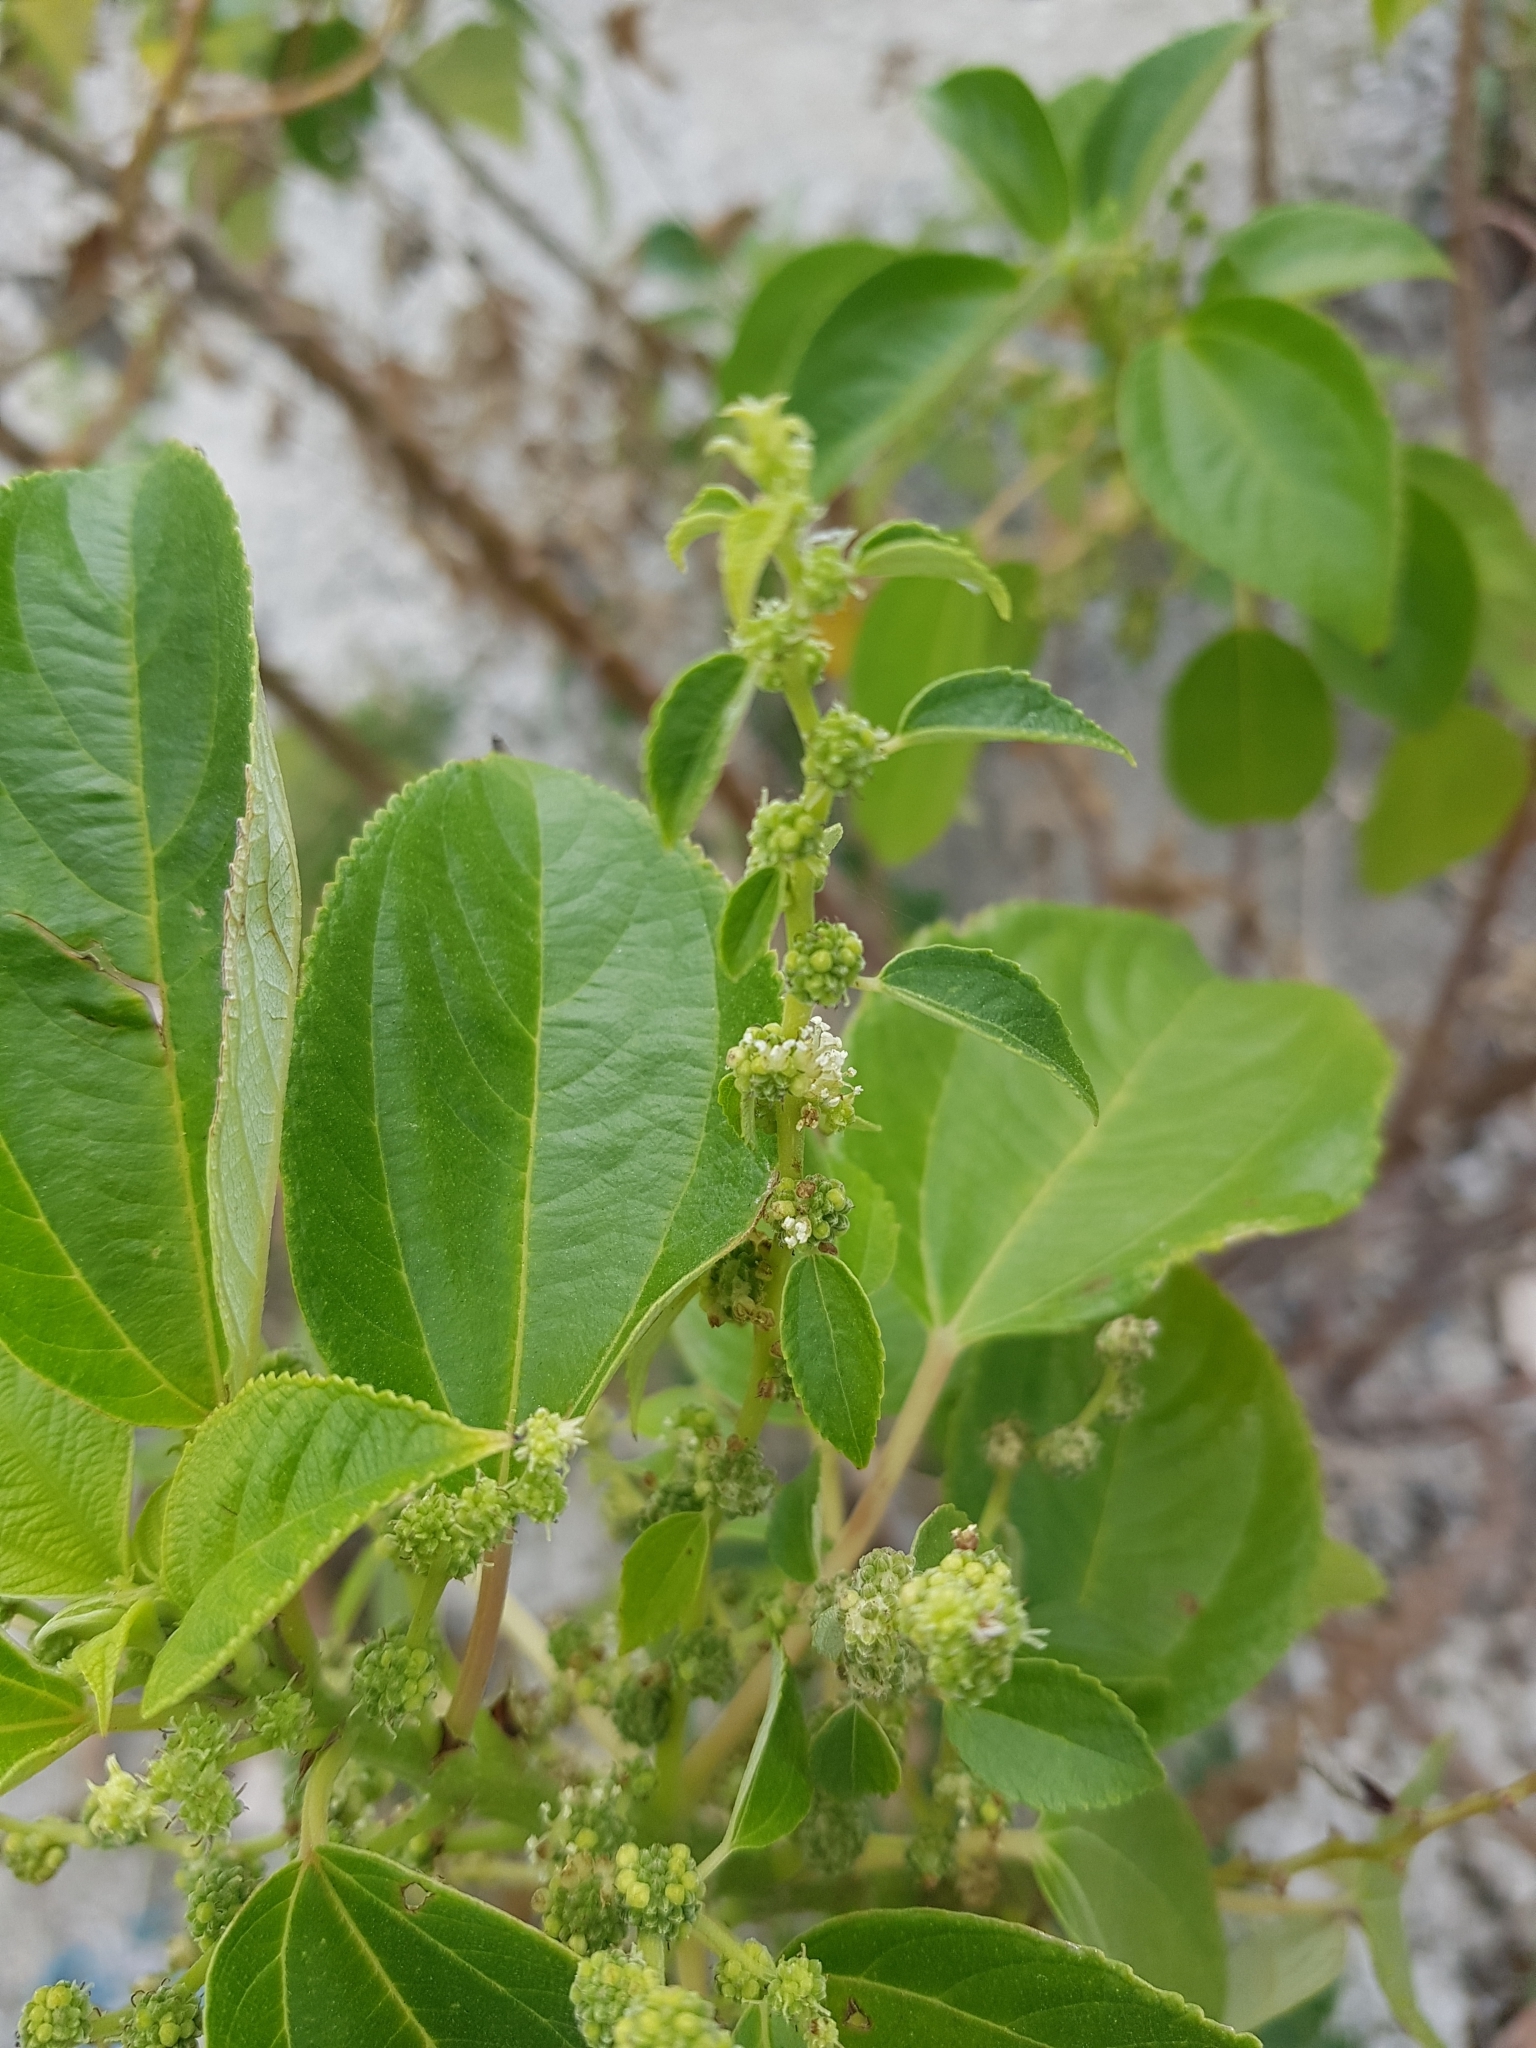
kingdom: Plantae
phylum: Tracheophyta
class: Magnoliopsida
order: Rosales
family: Urticaceae
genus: Pipturus
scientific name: Pipturus argenteus
